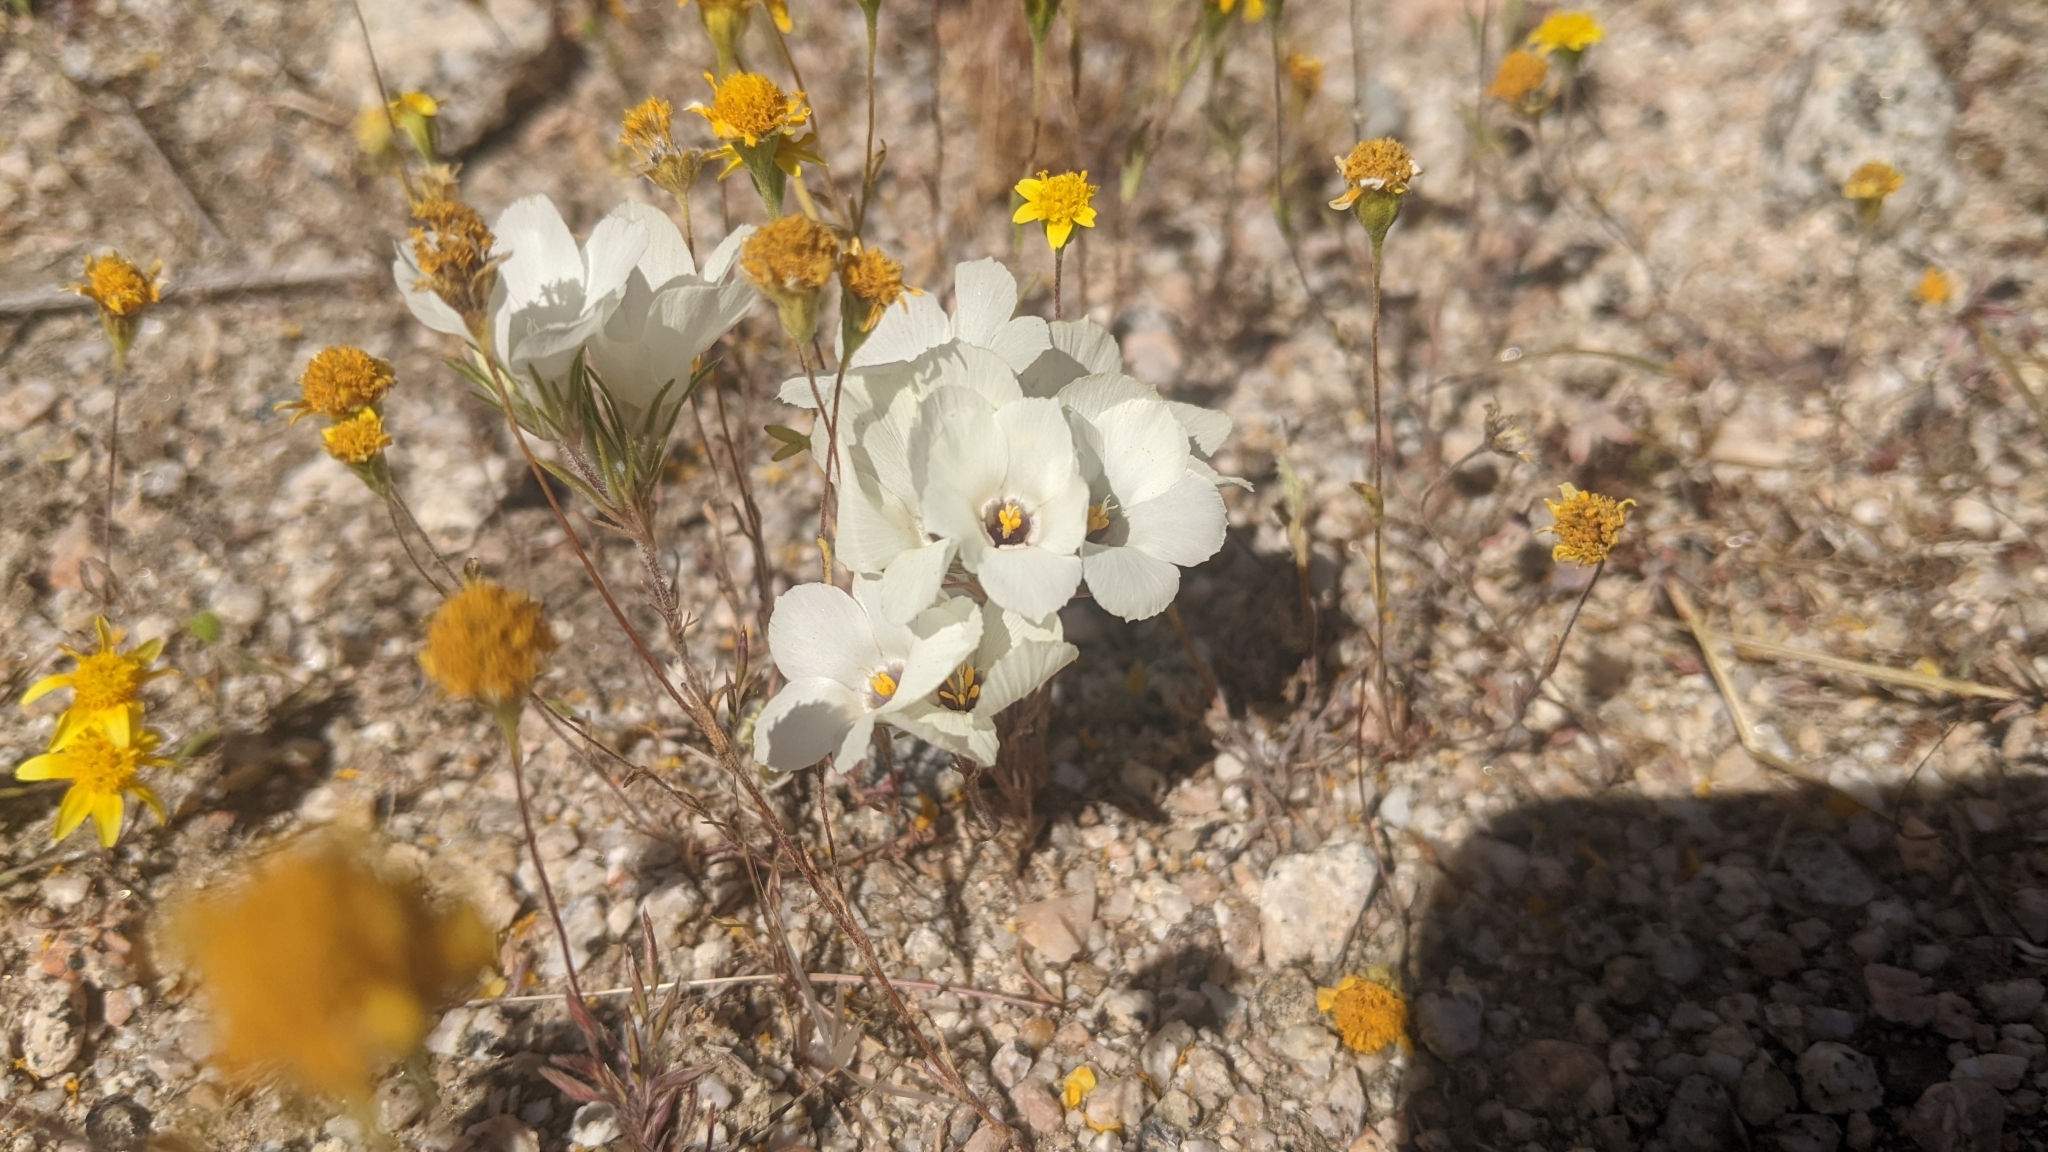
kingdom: Plantae
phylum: Tracheophyta
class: Magnoliopsida
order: Ericales
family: Polemoniaceae
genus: Linanthus
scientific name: Linanthus parryae
